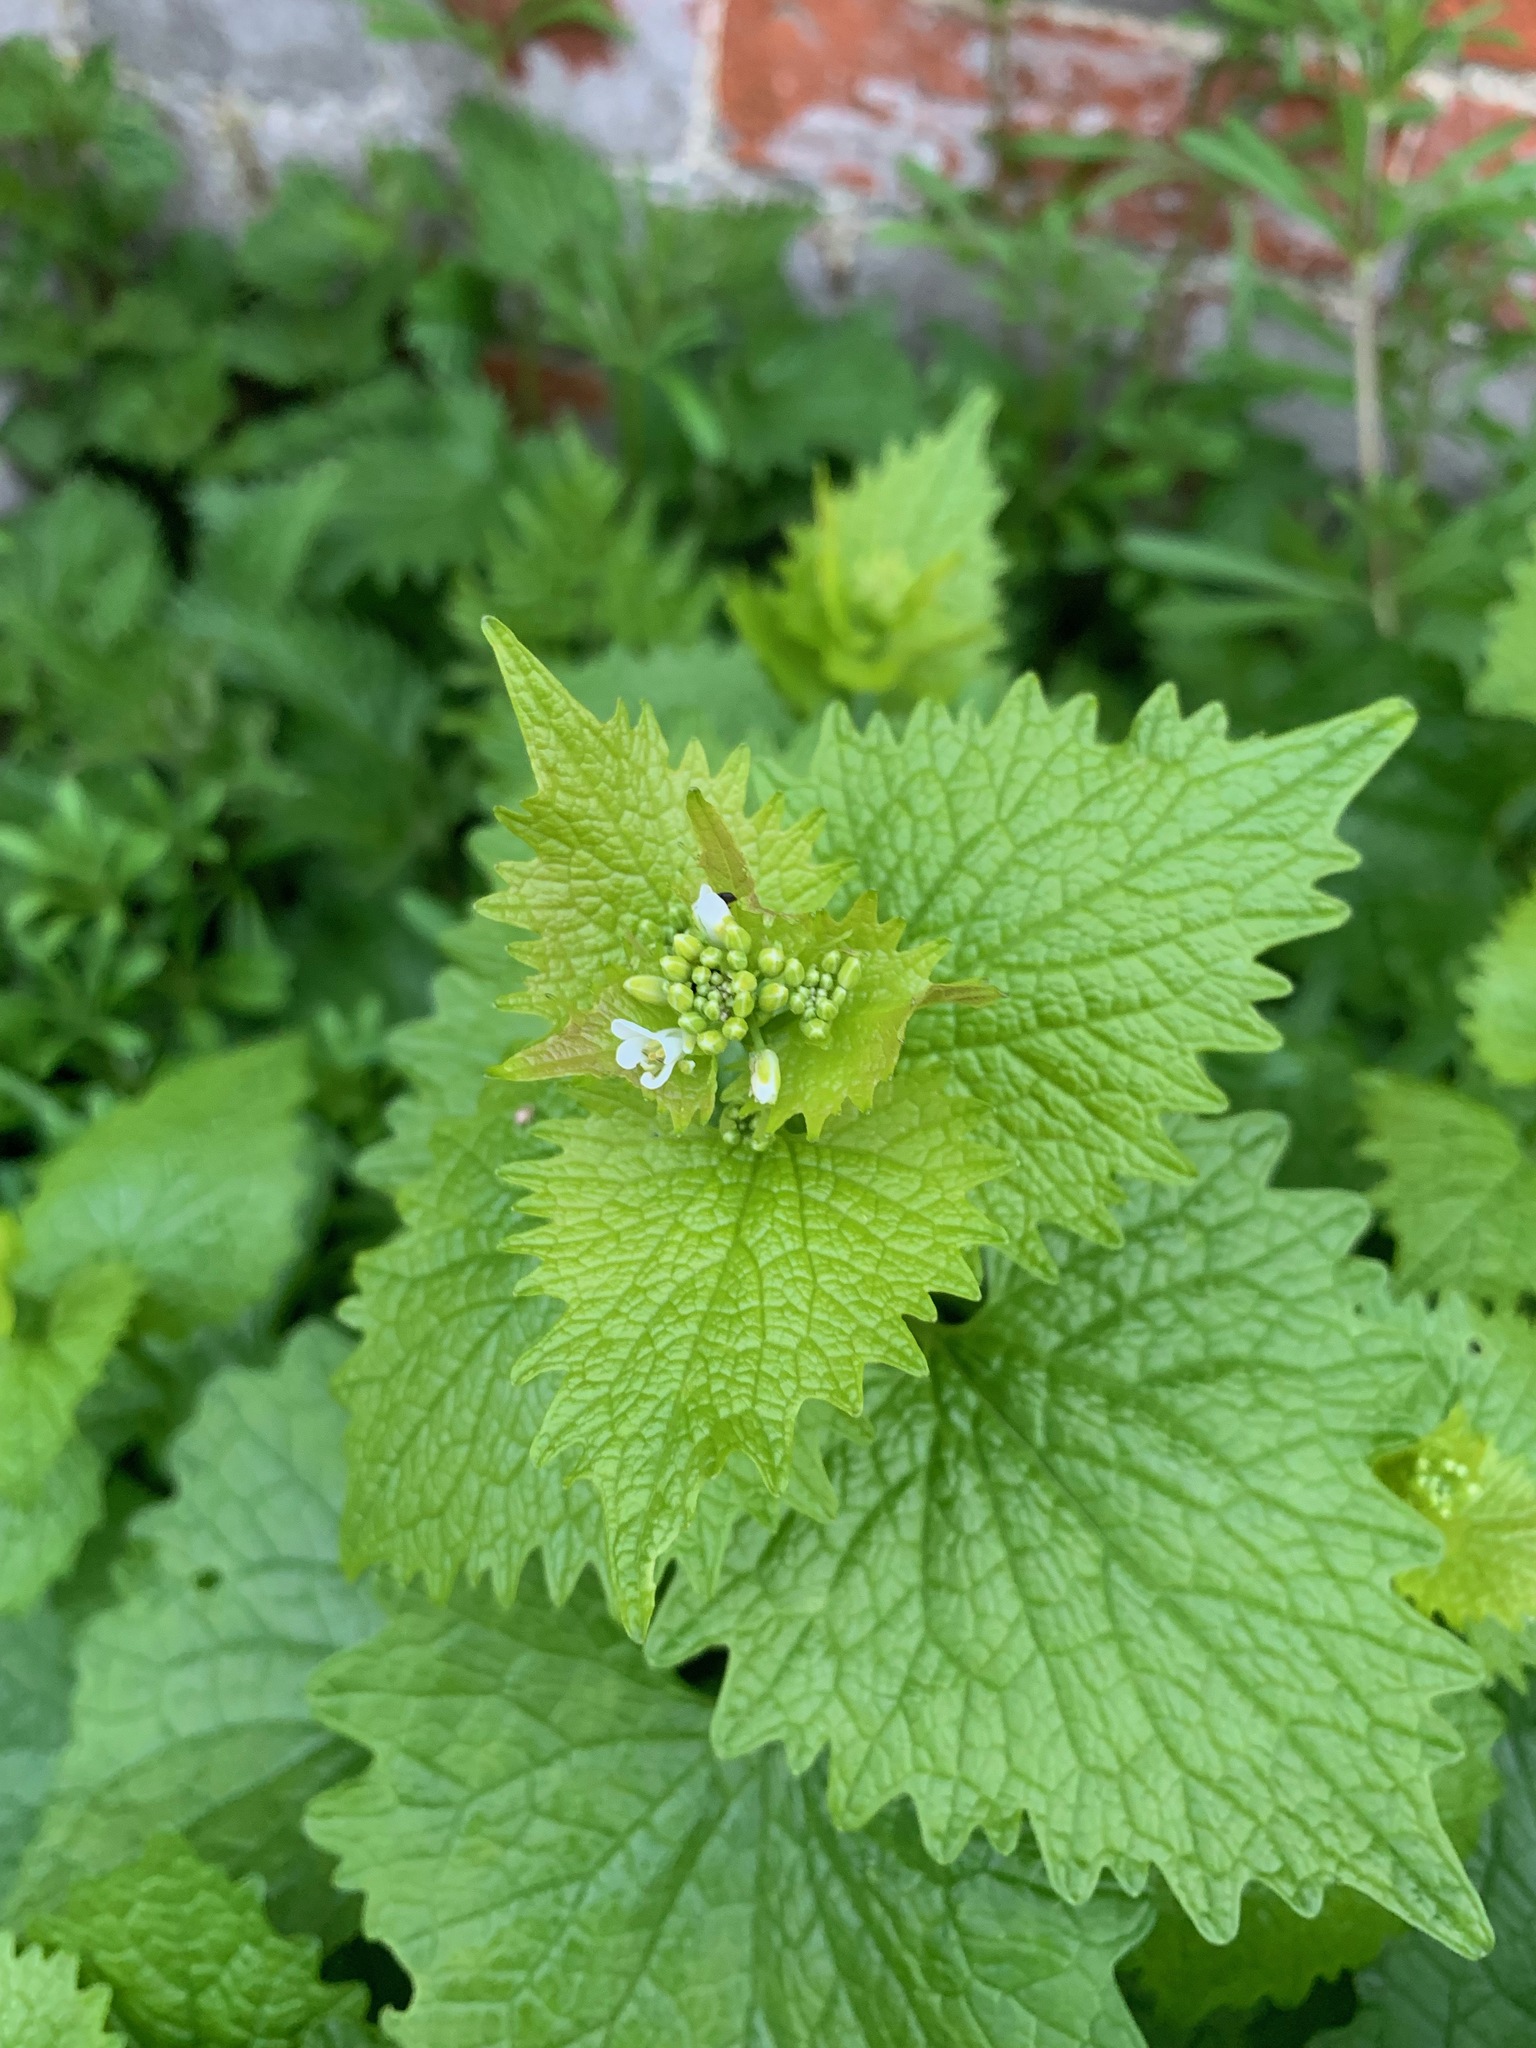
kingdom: Plantae
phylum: Tracheophyta
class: Magnoliopsida
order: Brassicales
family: Brassicaceae
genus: Alliaria
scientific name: Alliaria petiolata
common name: Garlic mustard
